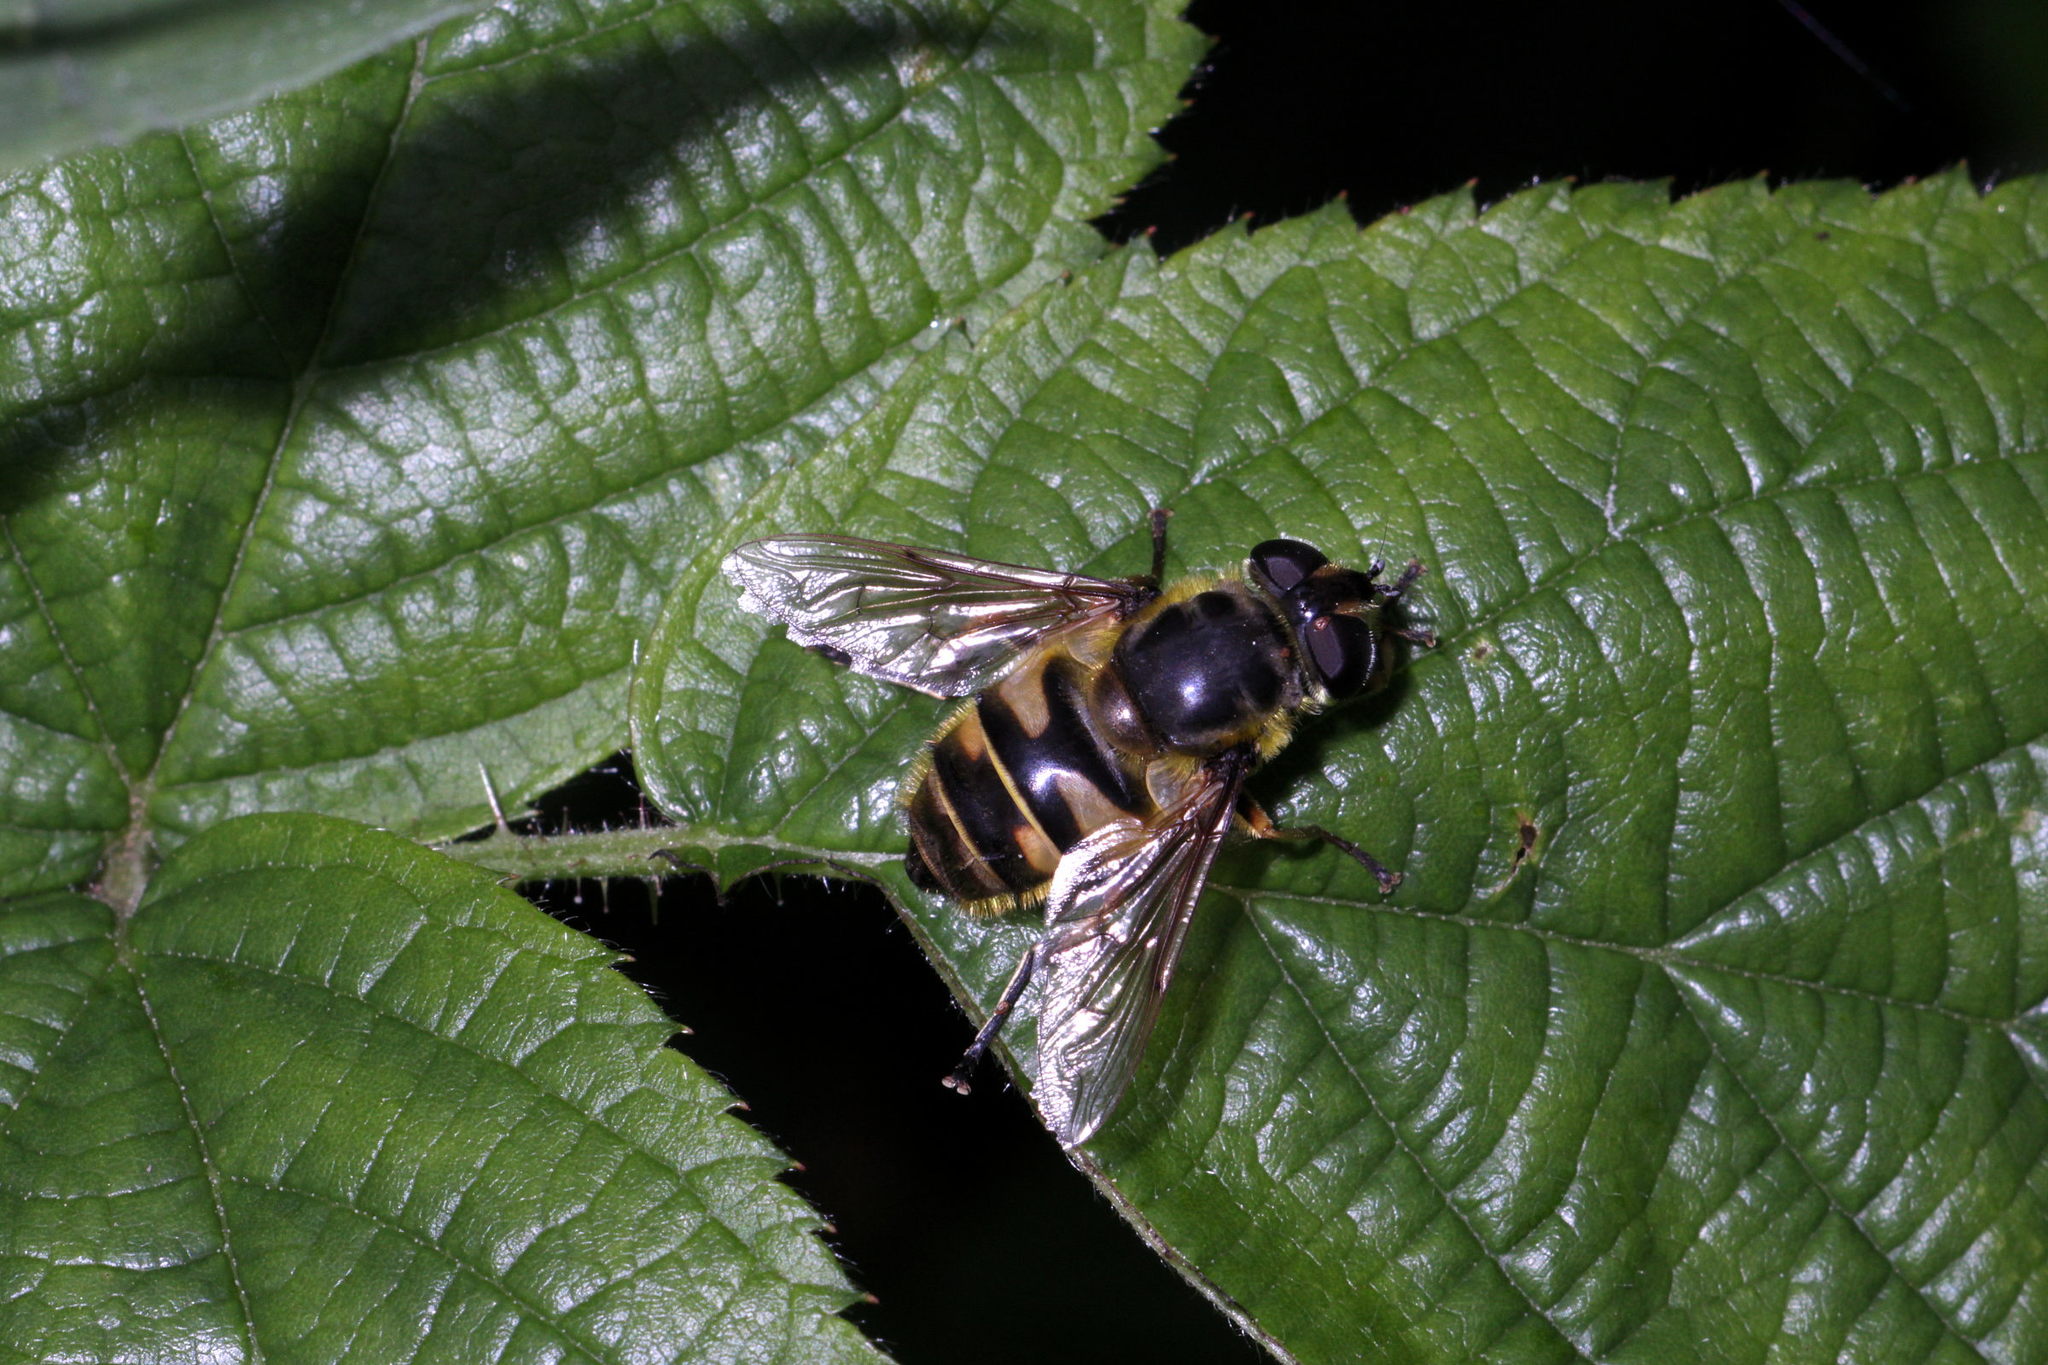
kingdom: Animalia
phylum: Arthropoda
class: Insecta
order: Diptera
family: Syrphidae
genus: Myathropa
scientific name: Myathropa florea
